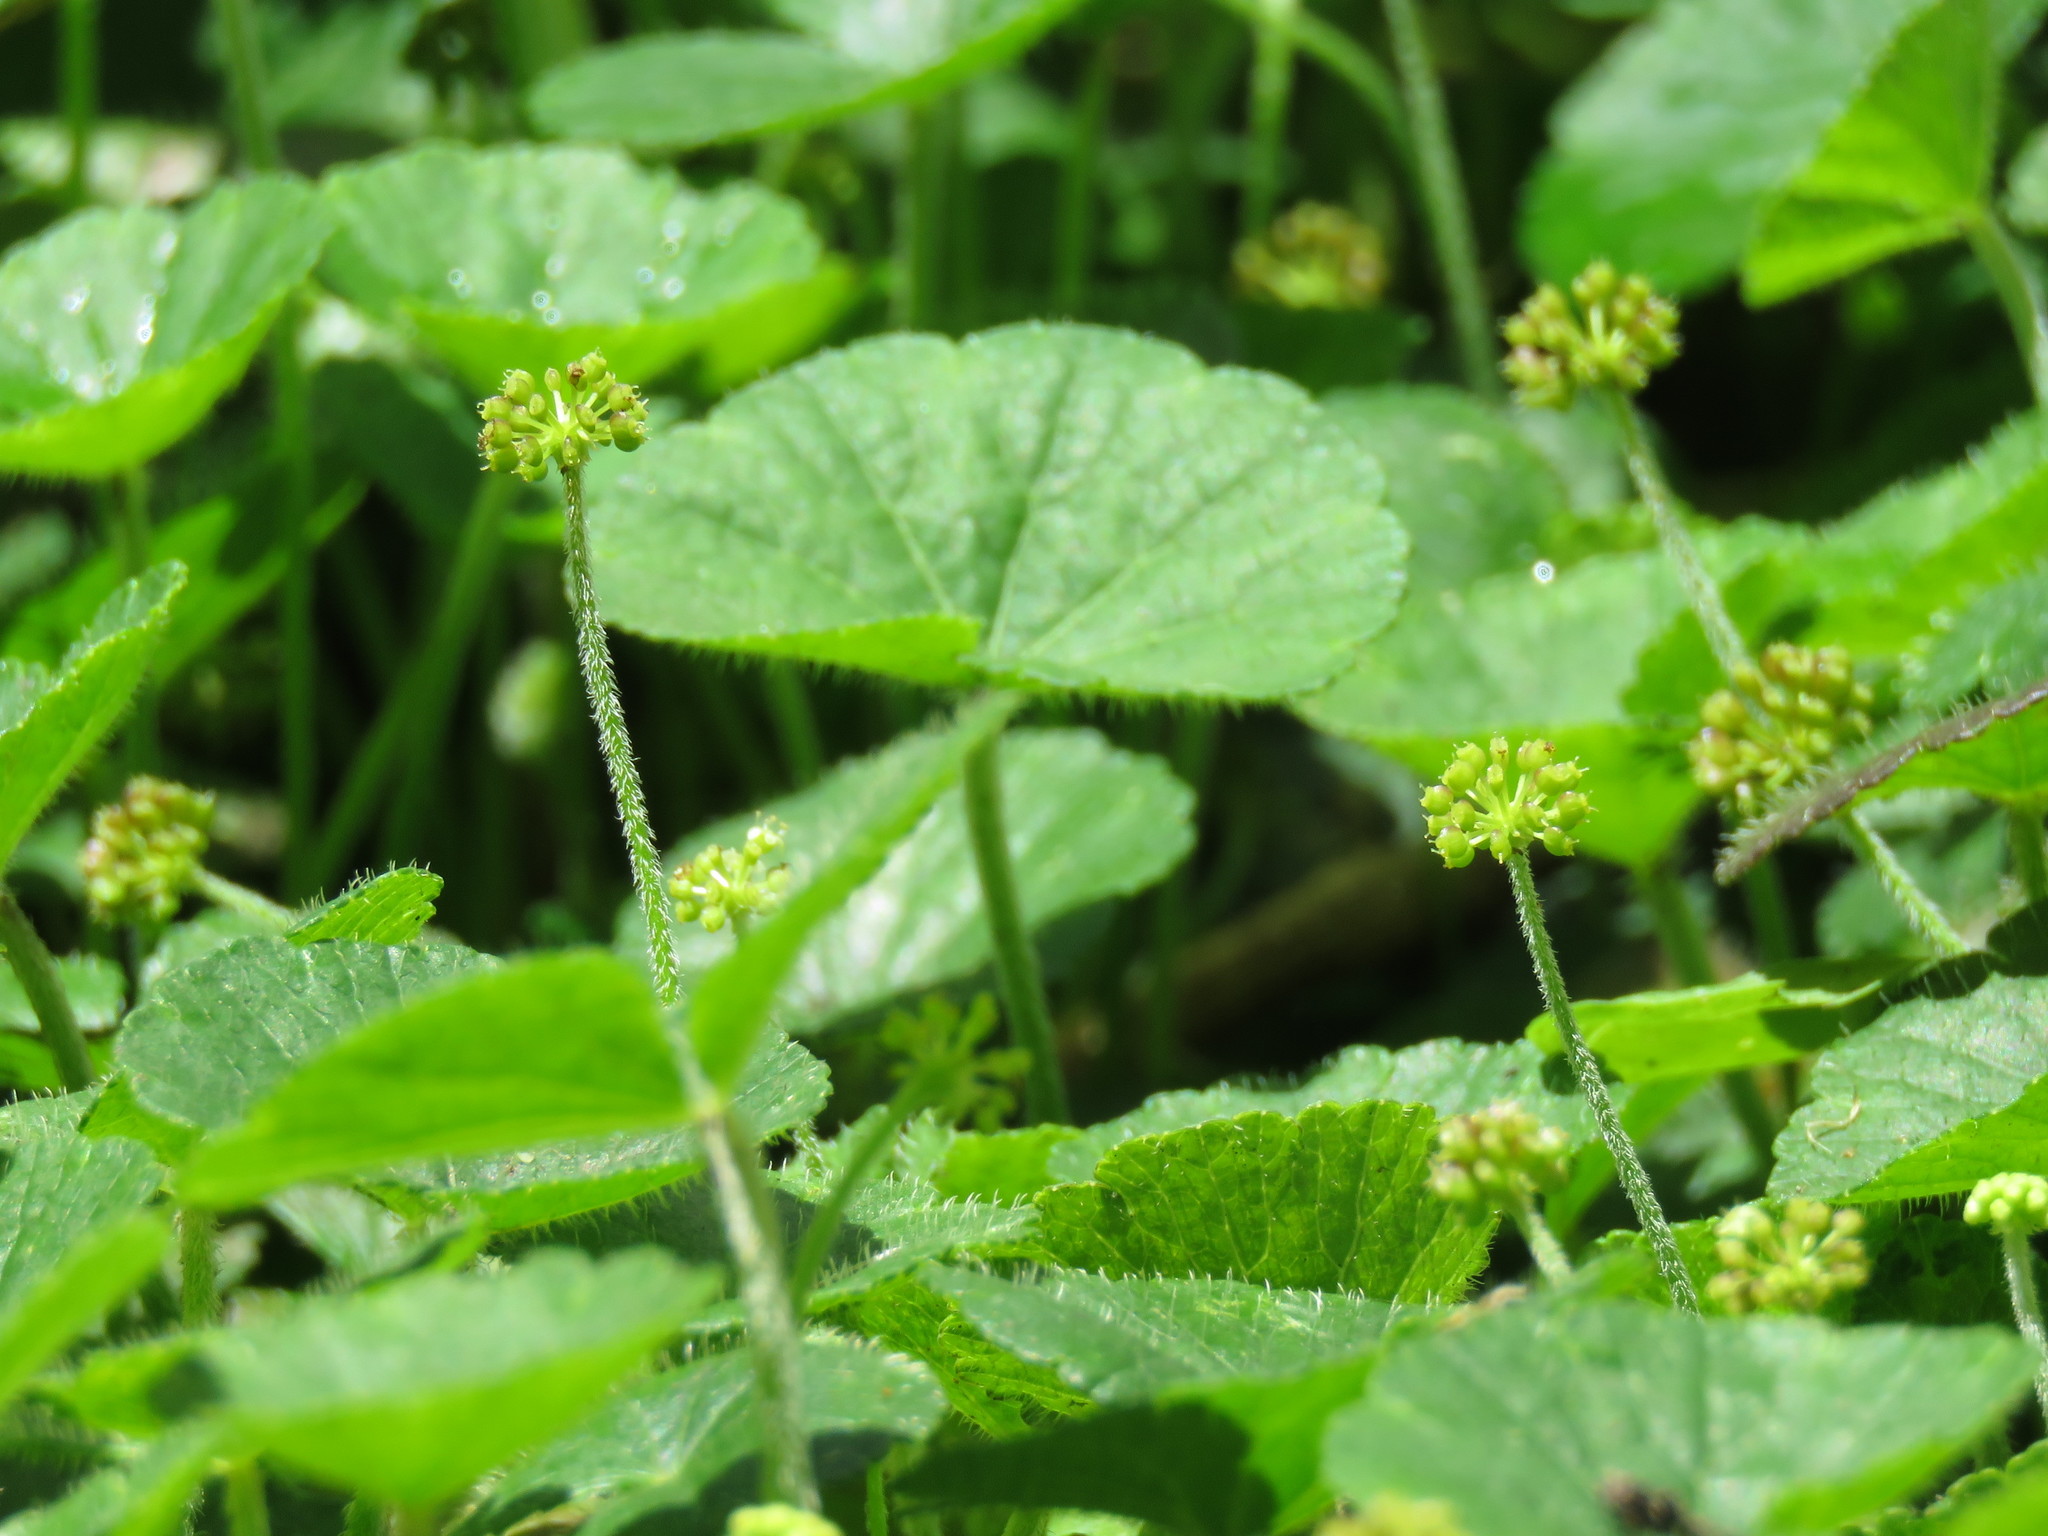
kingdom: Plantae
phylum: Tracheophyta
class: Magnoliopsida
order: Apiales
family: Araliaceae
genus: Hydrocotyle
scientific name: Hydrocotyle bonplandii
